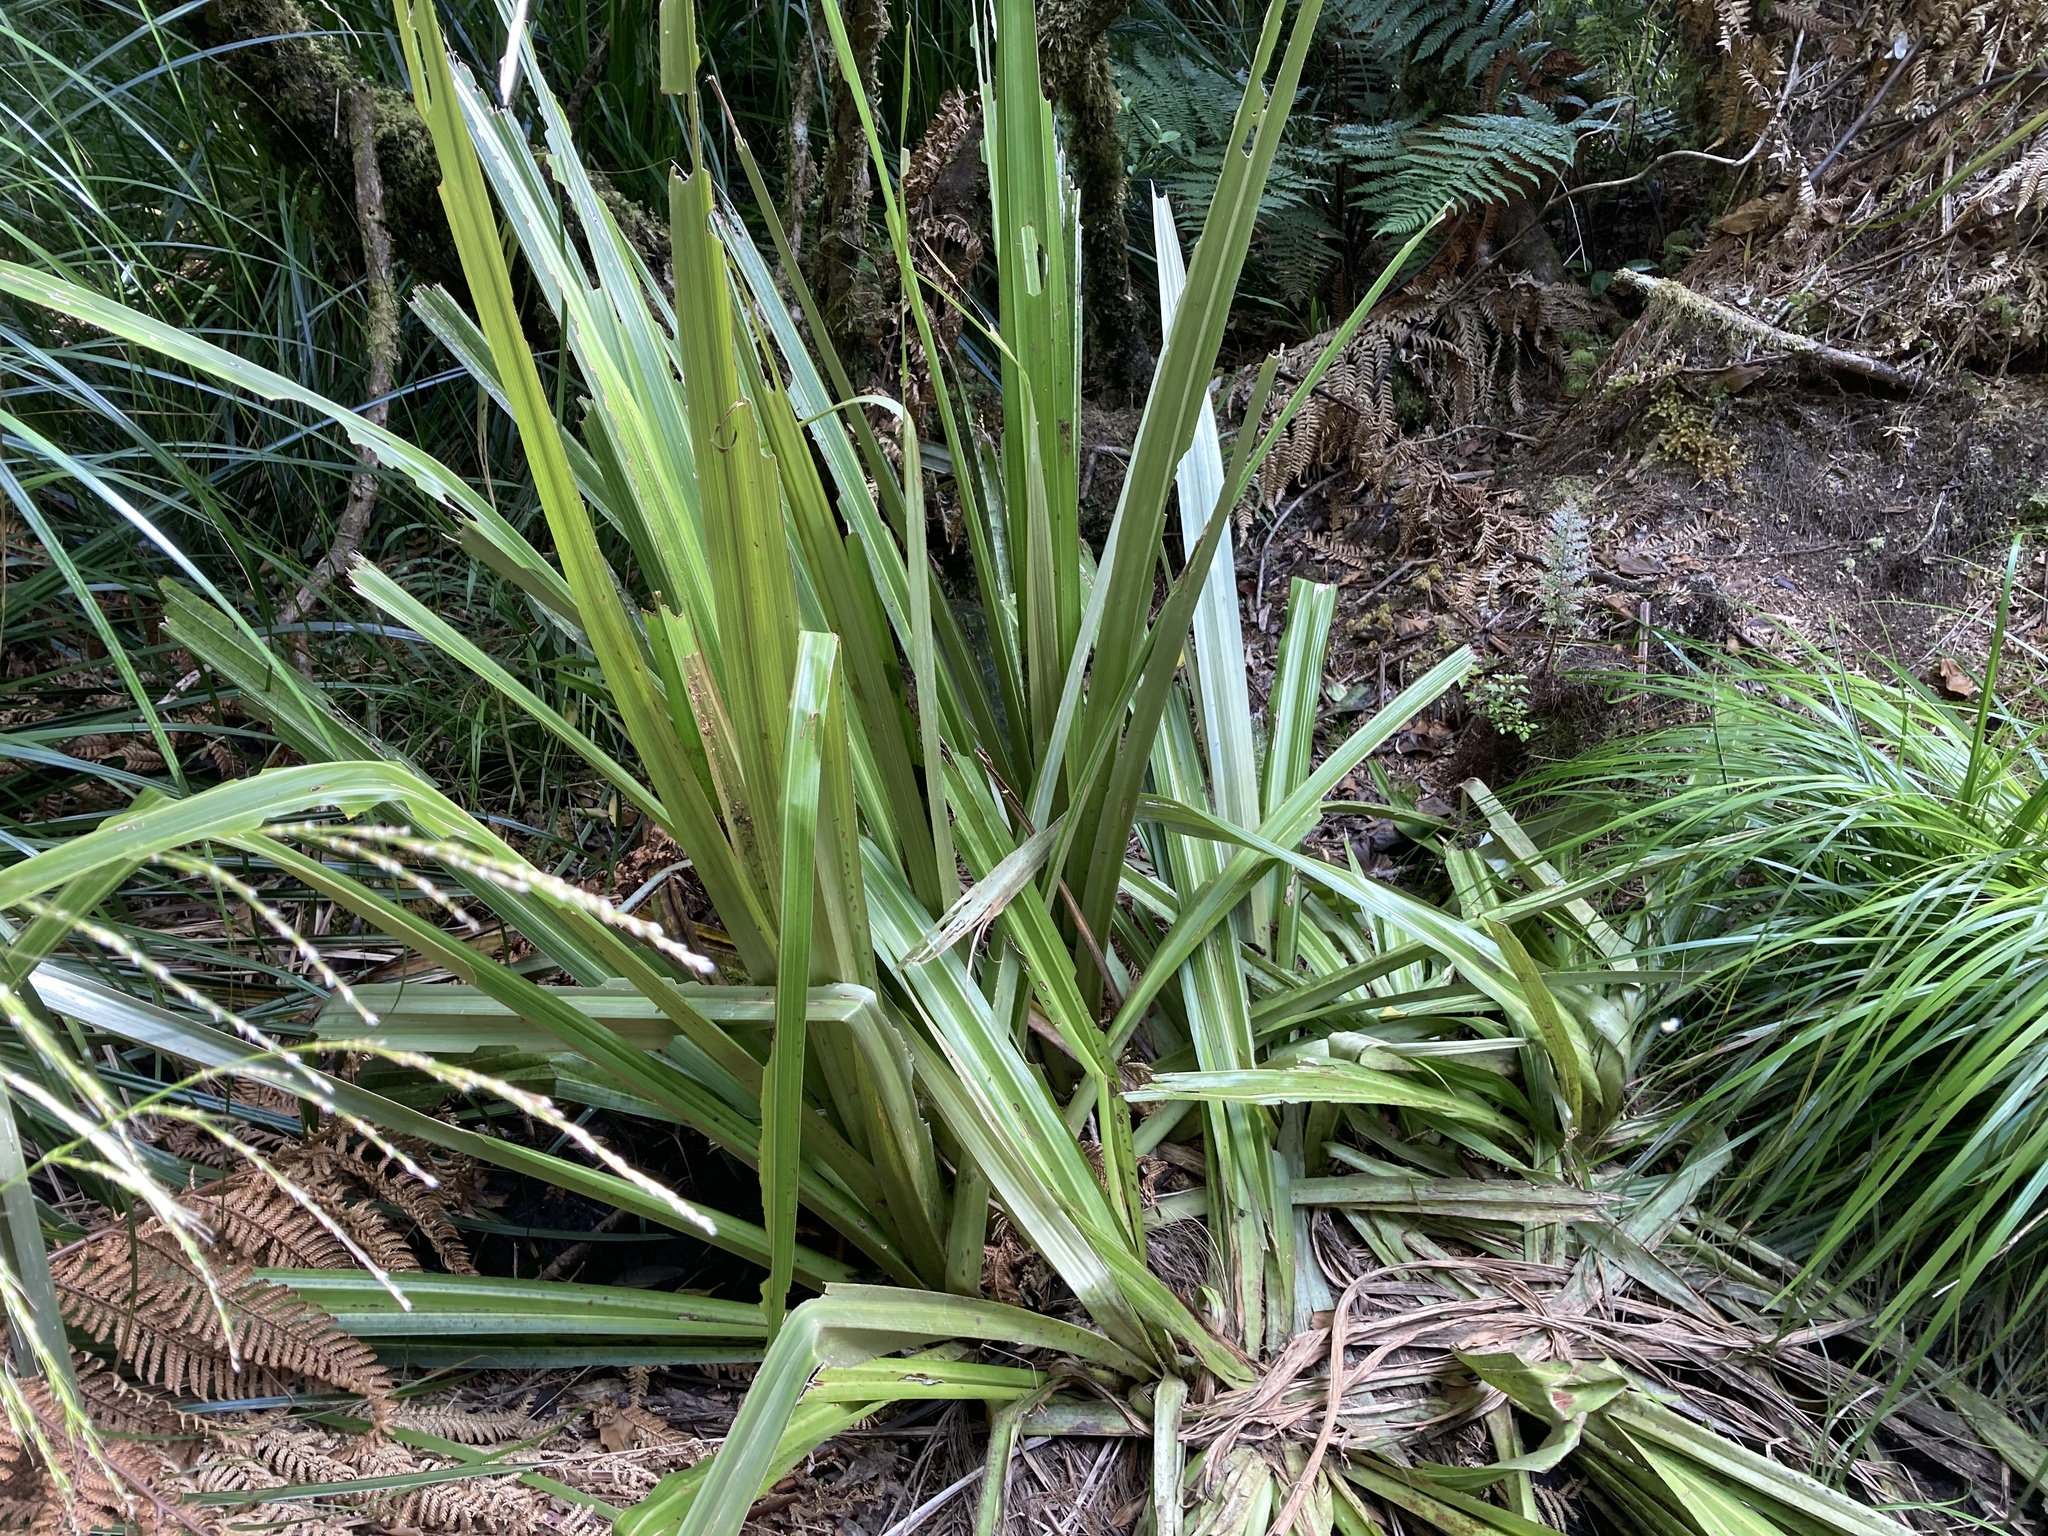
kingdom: Plantae
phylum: Tracheophyta
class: Liliopsida
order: Asparagales
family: Asteliaceae
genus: Astelia
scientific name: Astelia grandis
